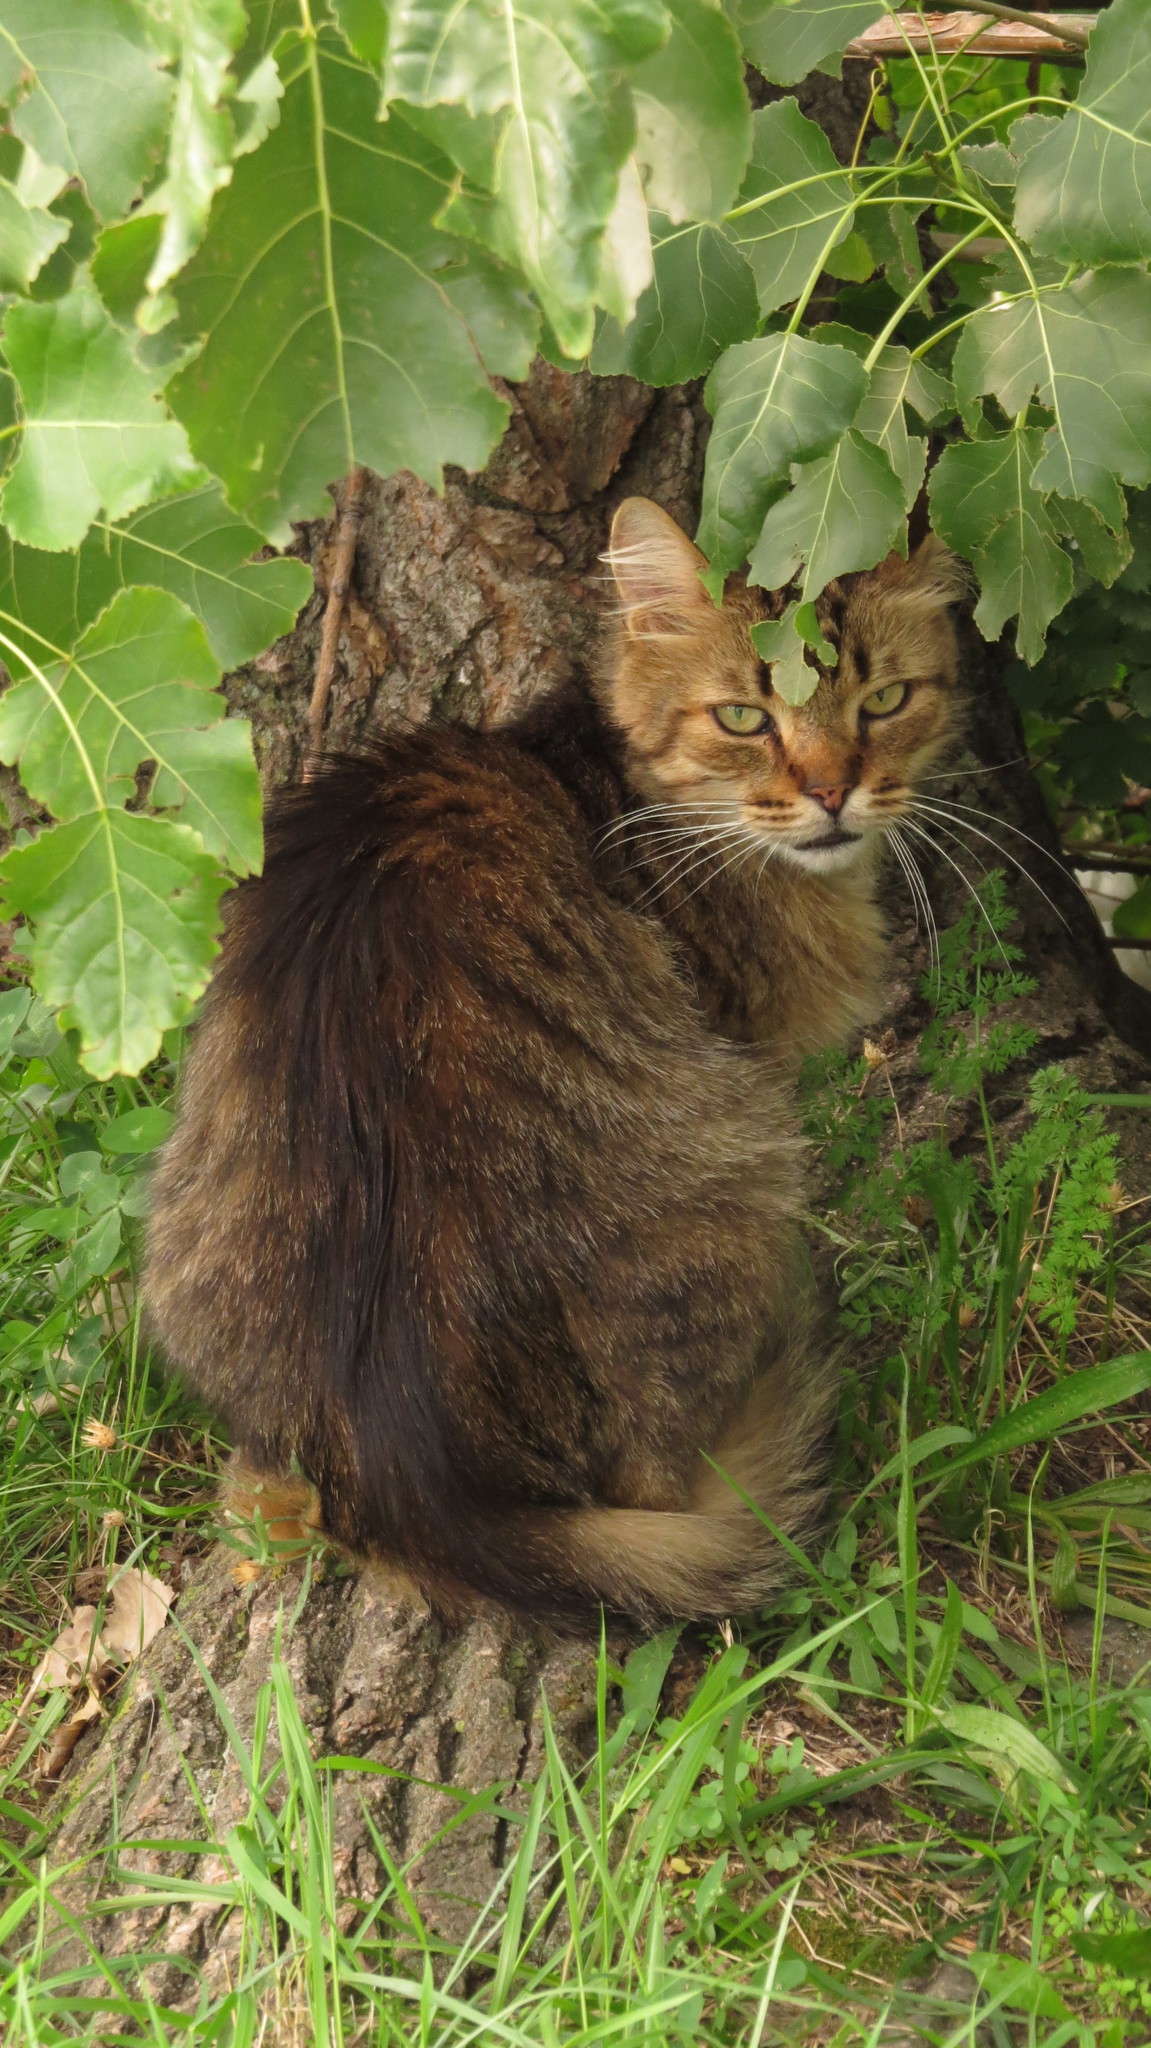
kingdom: Animalia
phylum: Chordata
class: Mammalia
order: Carnivora
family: Felidae
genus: Felis
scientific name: Felis catus
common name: Domestic cat
